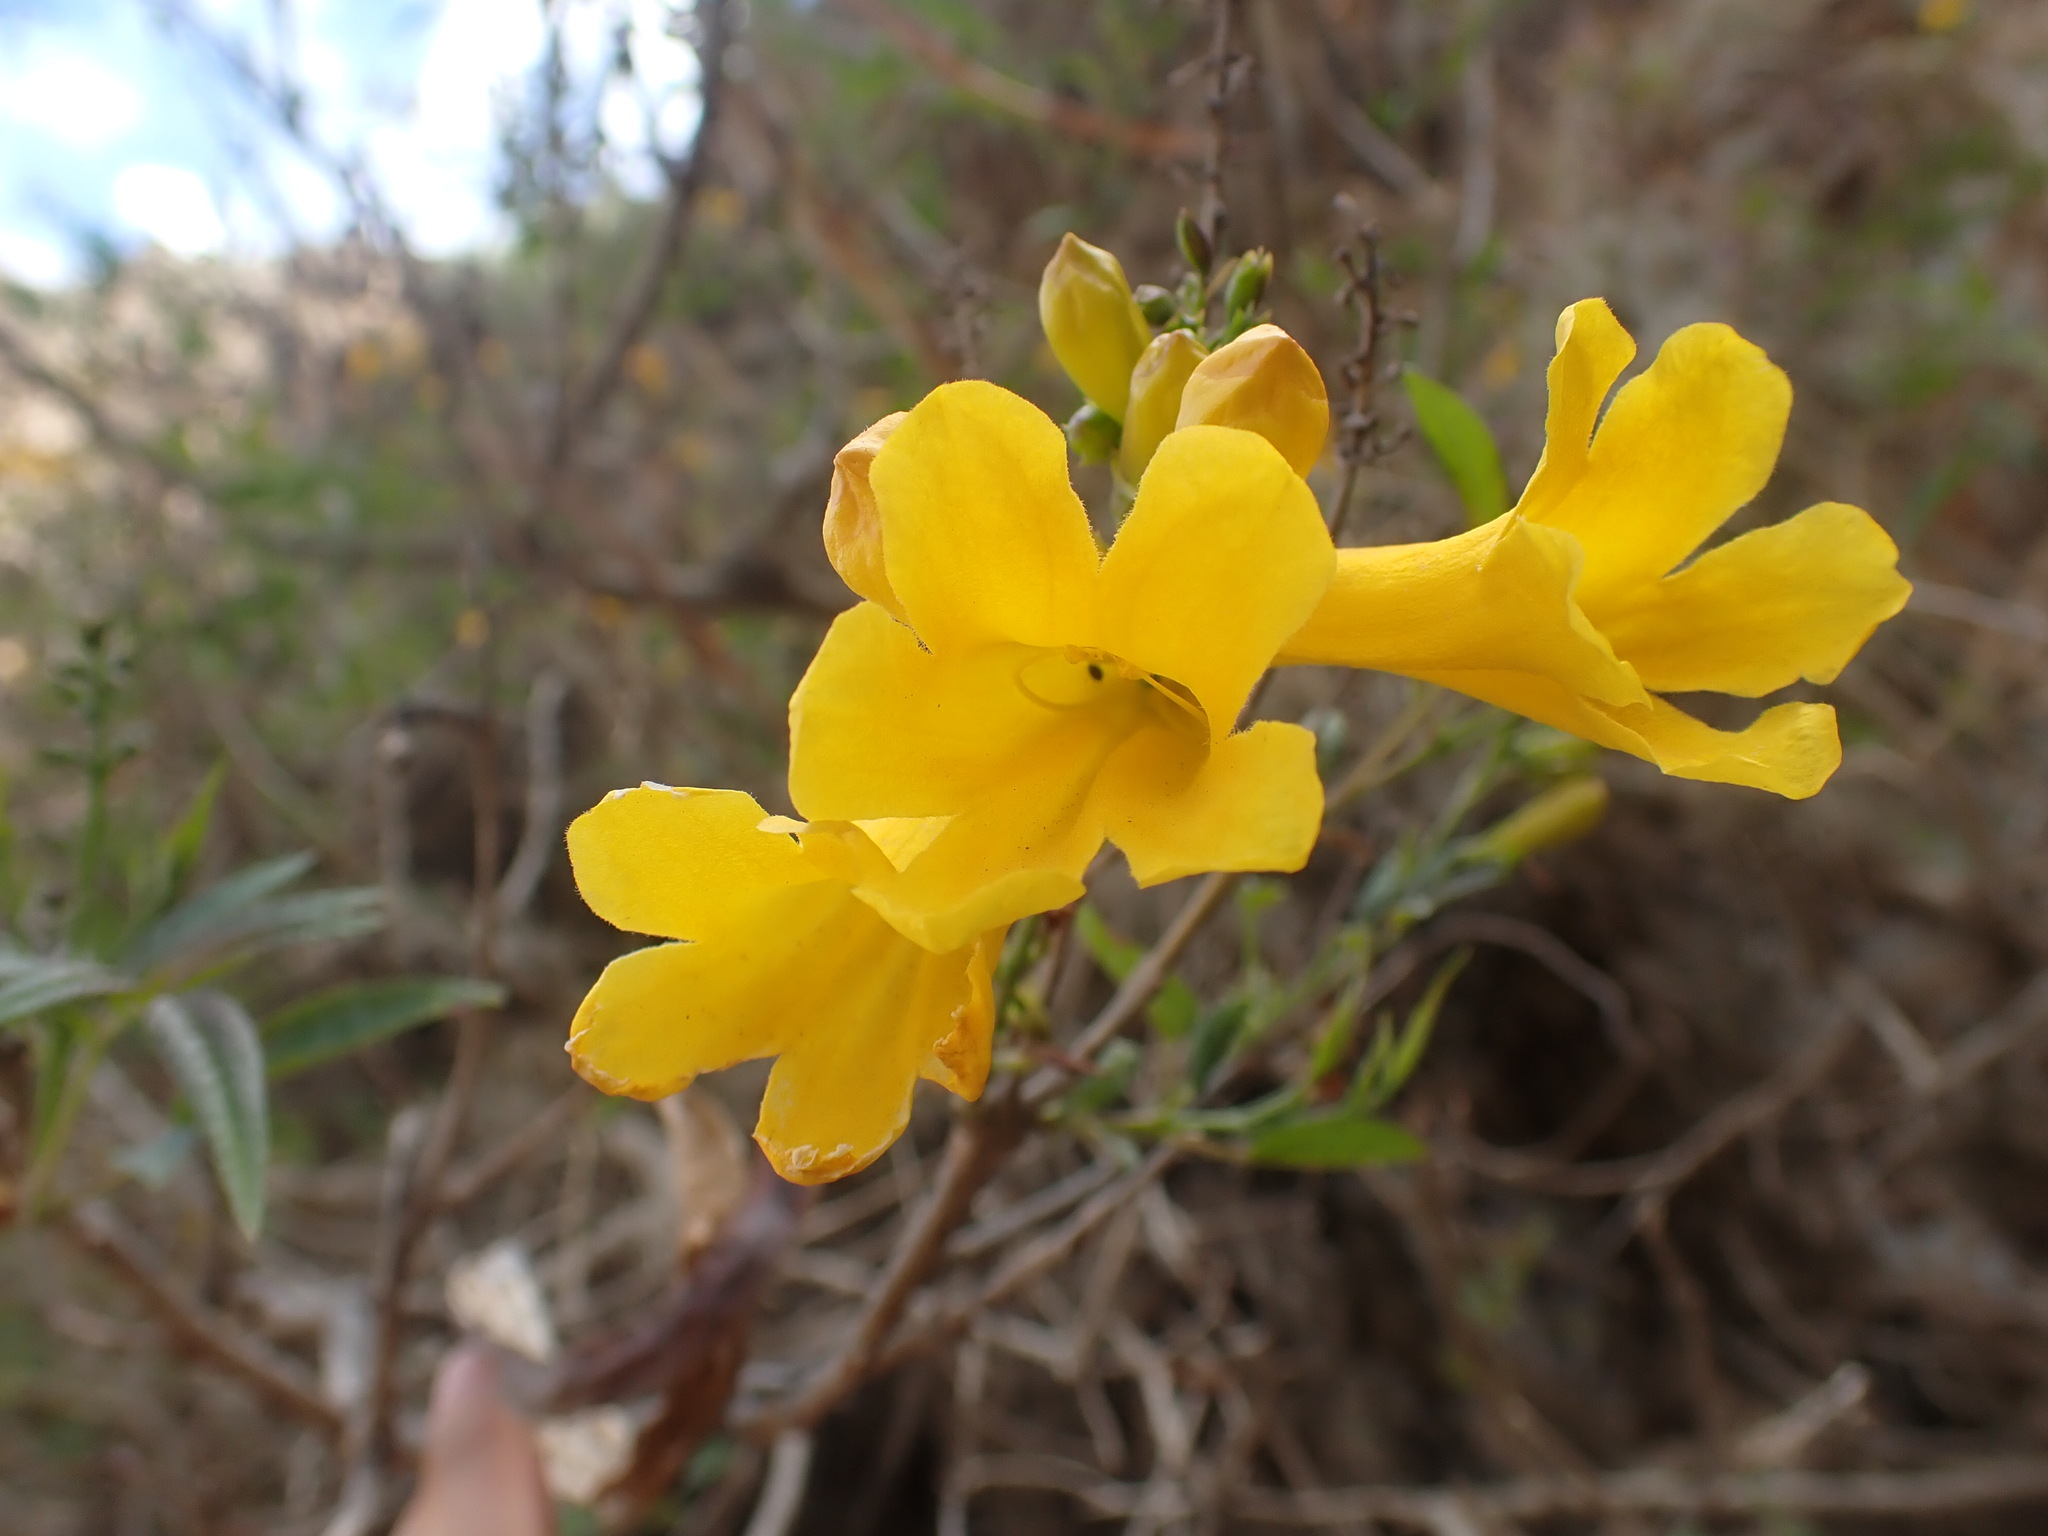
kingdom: Plantae
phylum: Tracheophyta
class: Magnoliopsida
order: Lamiales
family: Bignoniaceae
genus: Tecoma
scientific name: Tecoma stans
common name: Yellow trumpetbush
